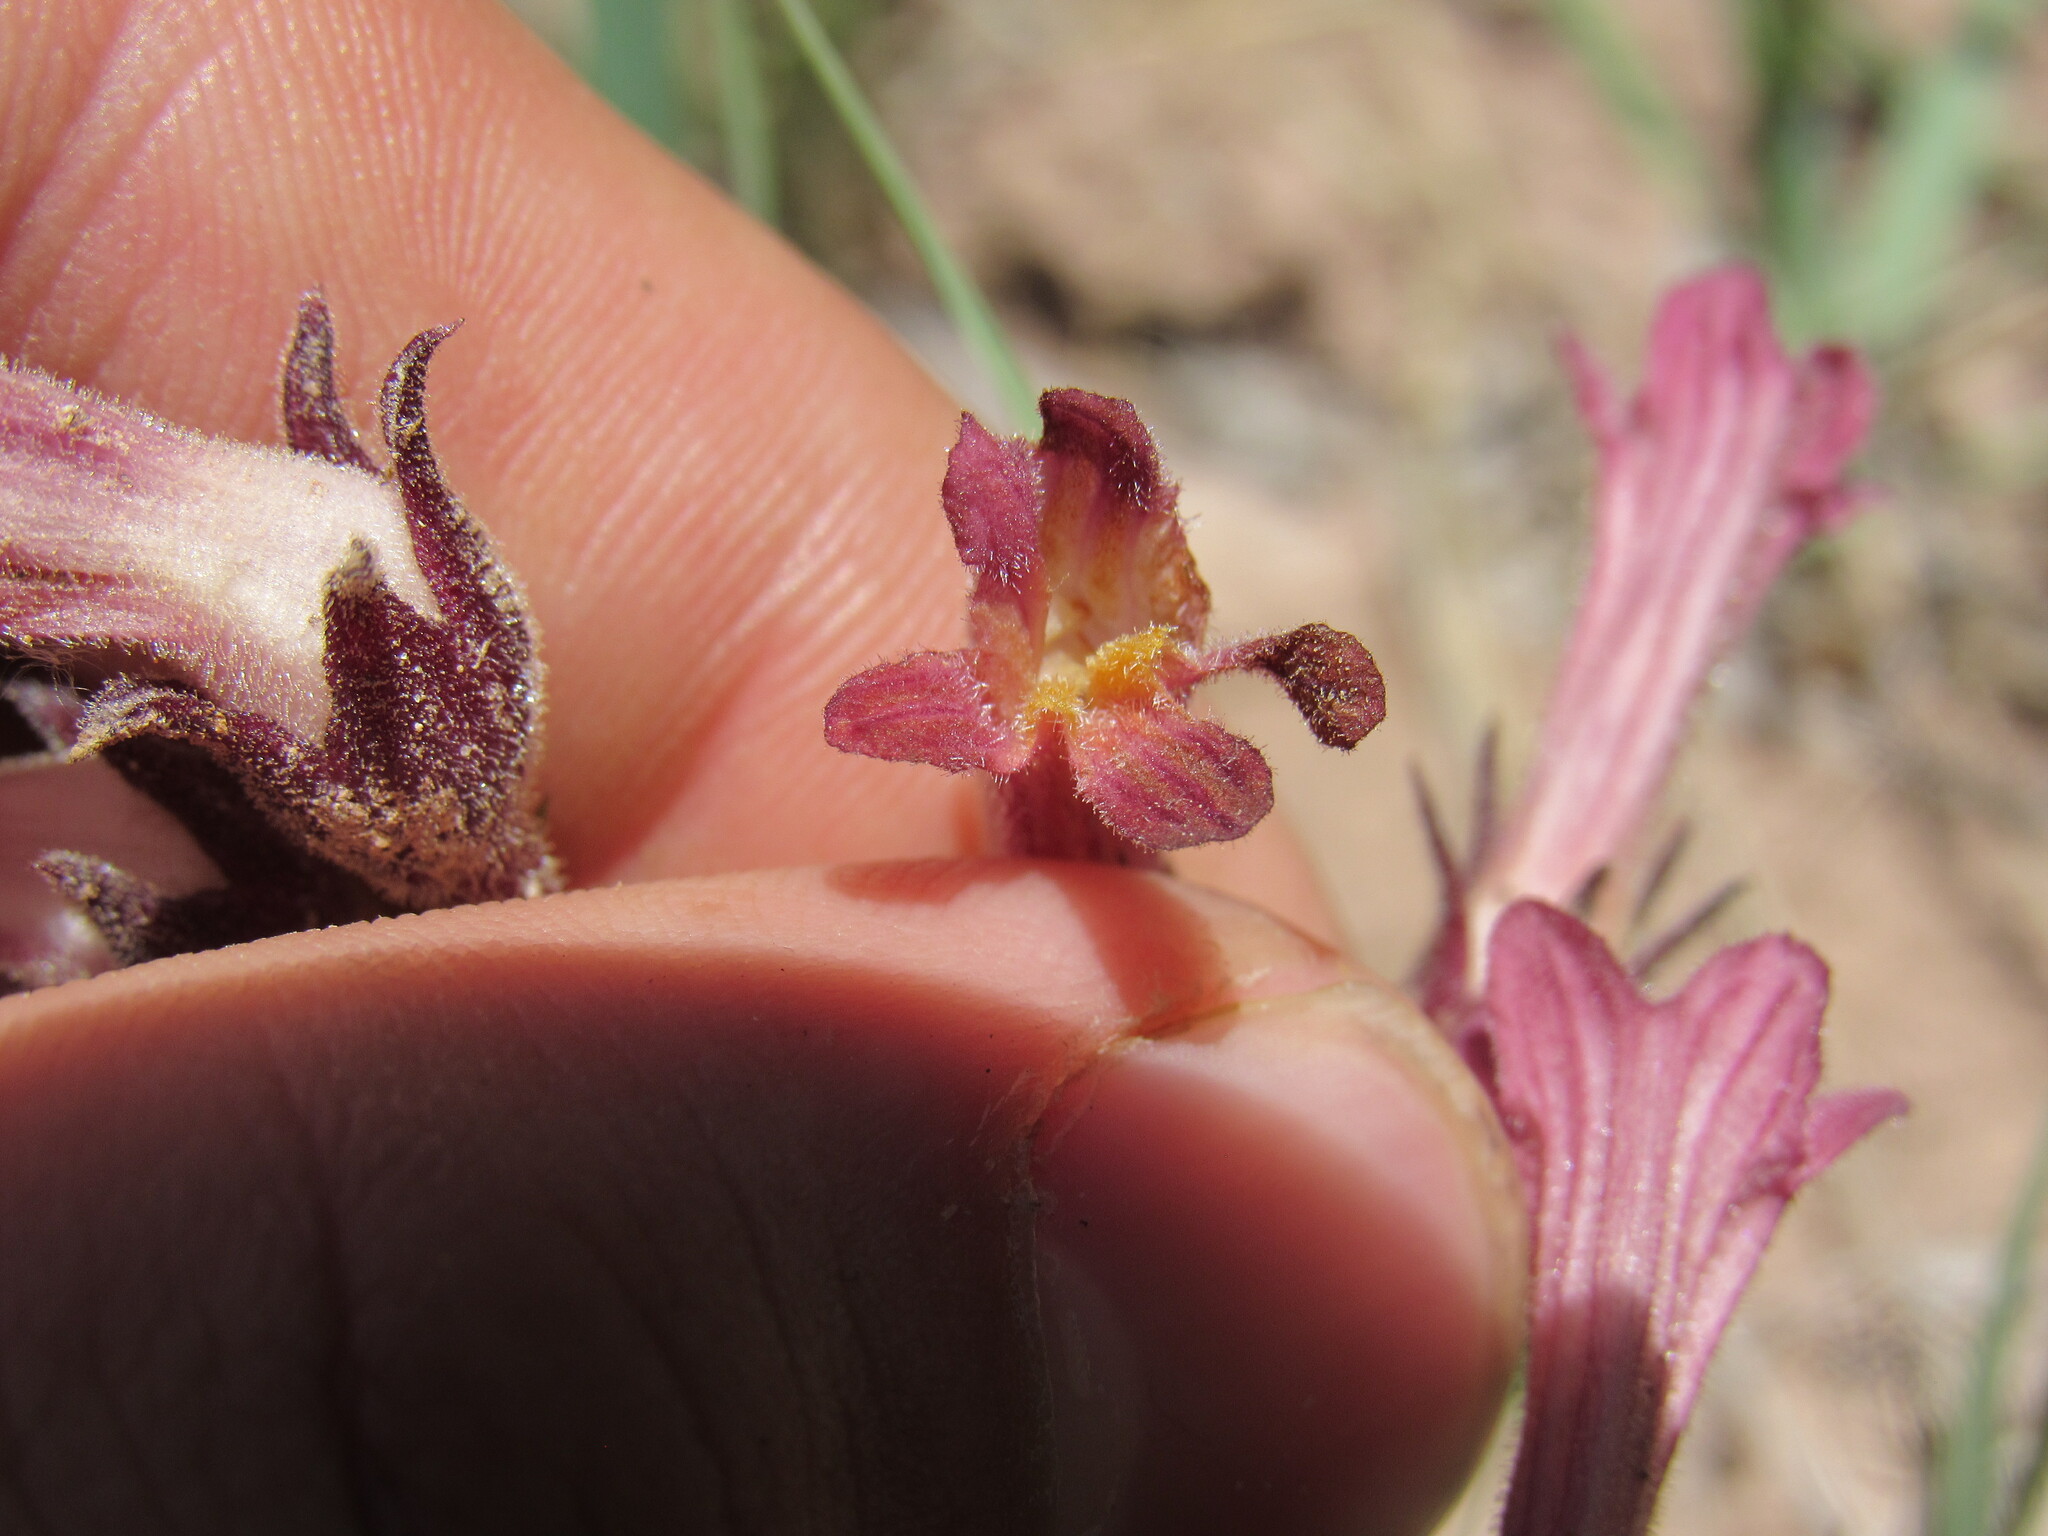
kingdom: Plantae
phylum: Tracheophyta
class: Magnoliopsida
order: Lamiales
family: Orobanchaceae
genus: Aphyllon
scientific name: Aphyllon fasciculatum
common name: Clustered broomrape
